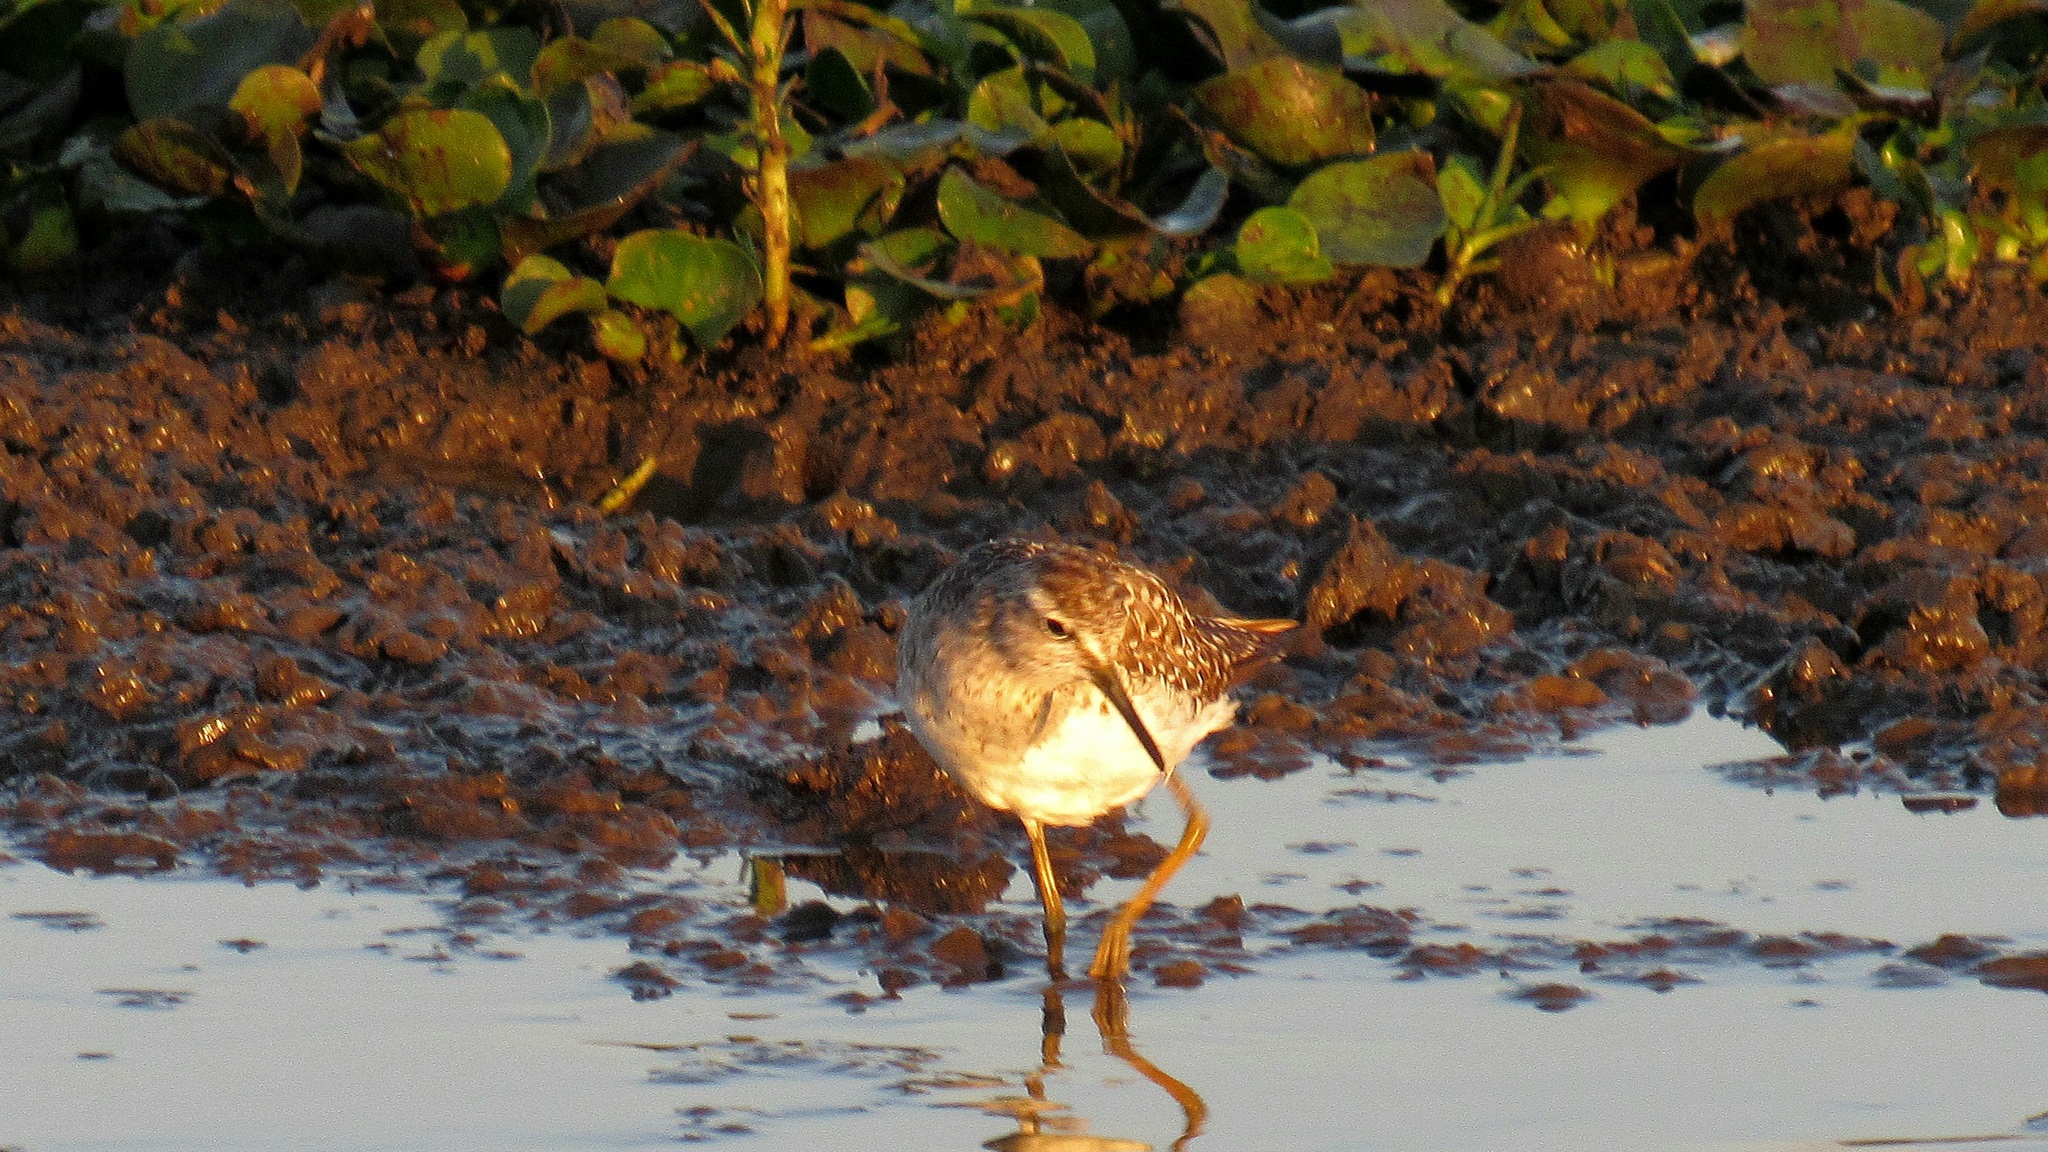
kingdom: Animalia
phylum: Chordata
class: Aves
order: Charadriiformes
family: Scolopacidae
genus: Tringa
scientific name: Tringa glareola
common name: Wood sandpiper
